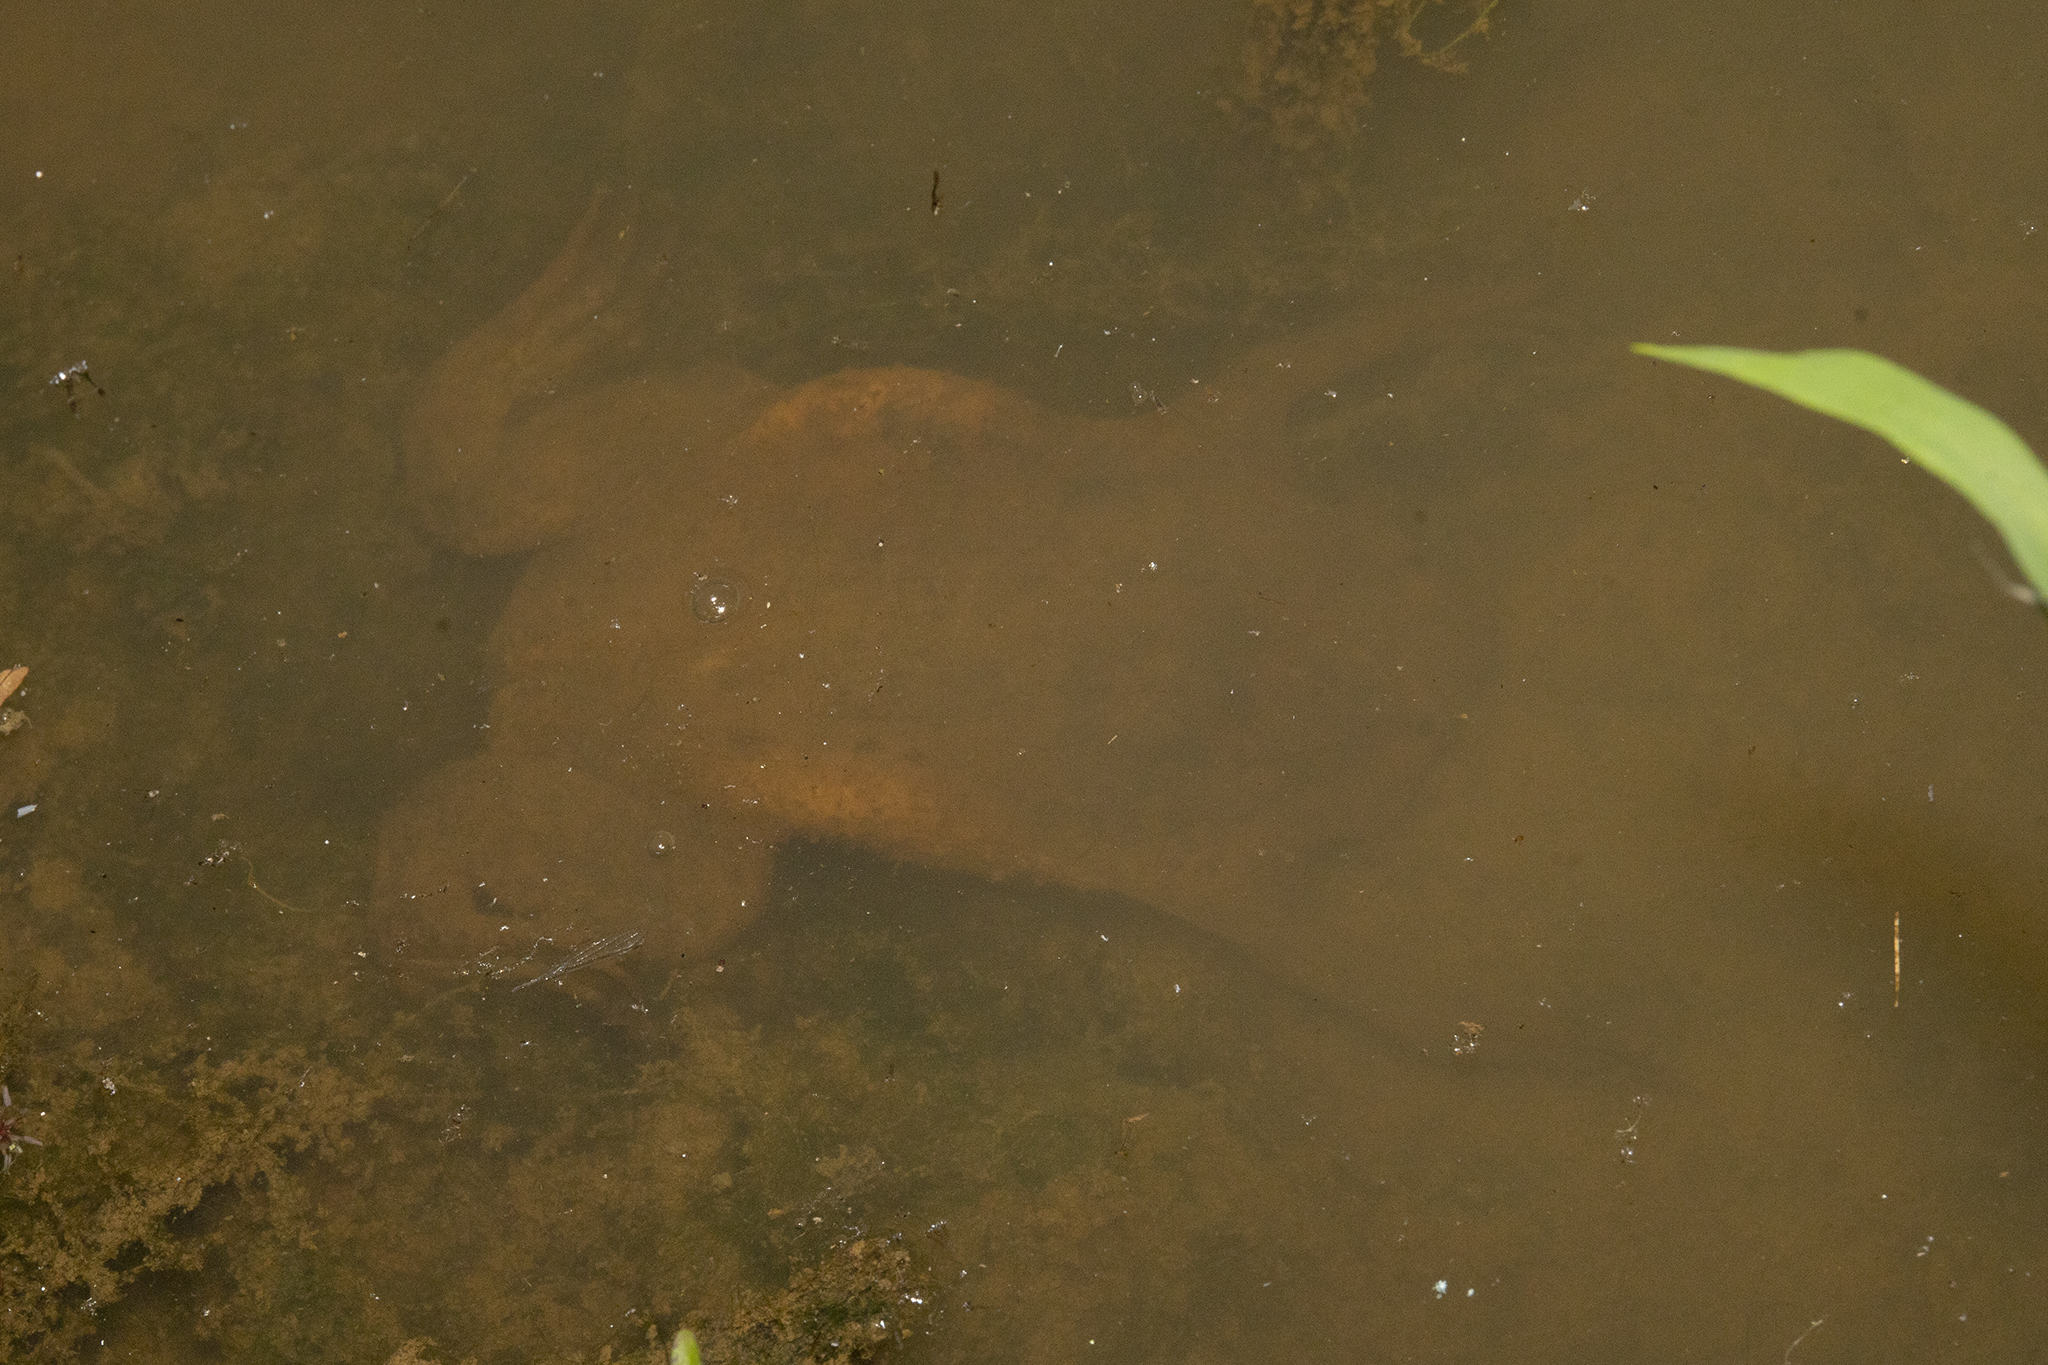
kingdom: Animalia
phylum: Chordata
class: Amphibia
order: Anura
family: Pipidae
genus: Pipa
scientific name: Pipa pipa
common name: Surinam toad
